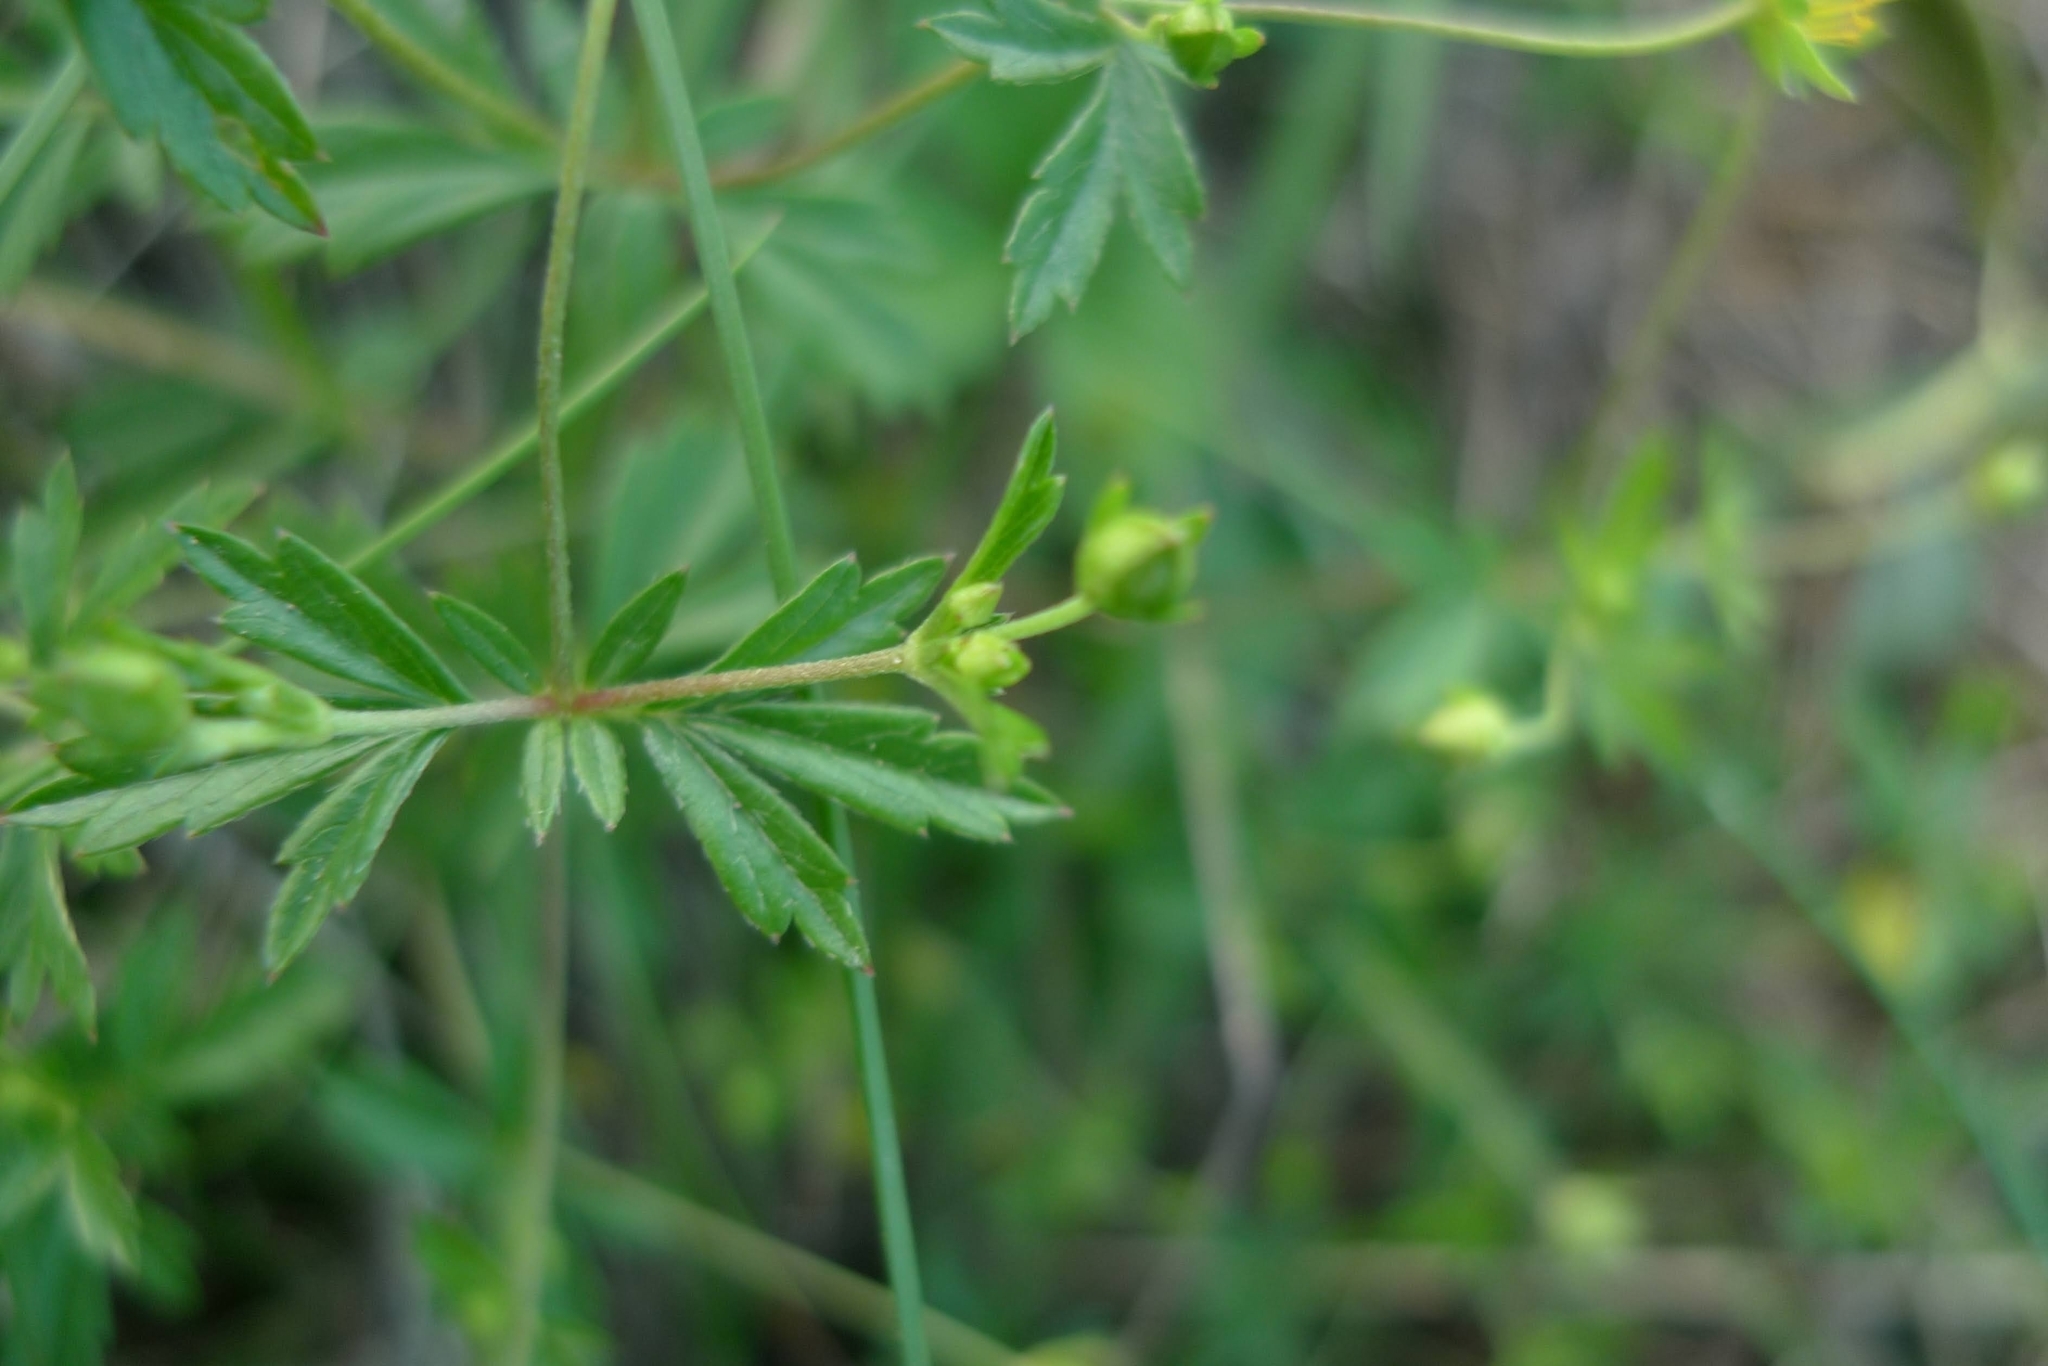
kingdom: Plantae
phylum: Tracheophyta
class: Magnoliopsida
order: Rosales
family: Rosaceae
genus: Potentilla
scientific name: Potentilla erecta
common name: Tormentil
